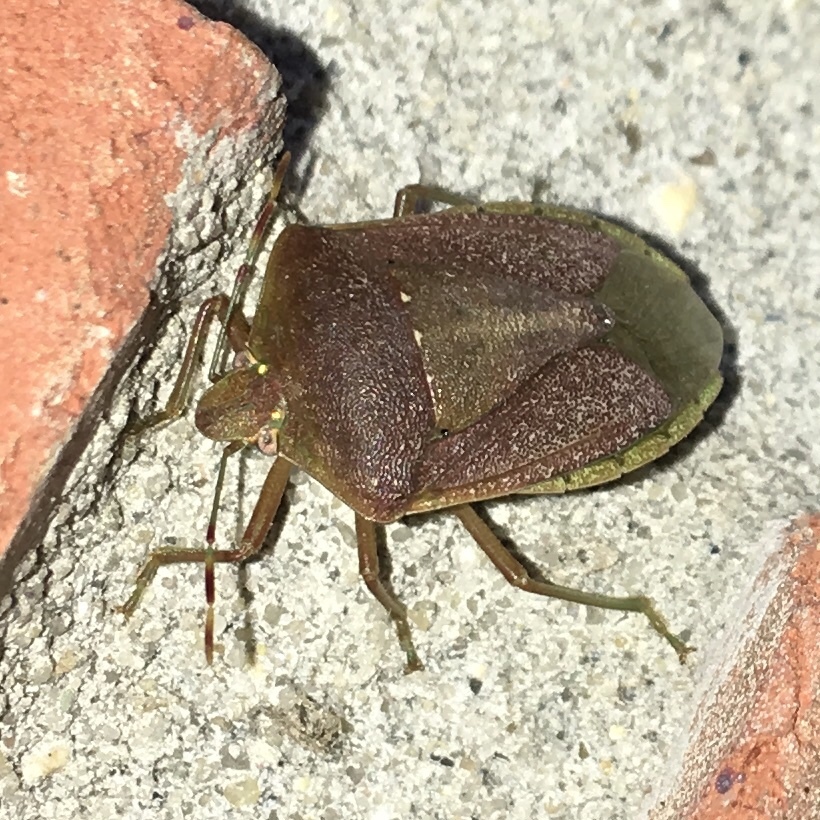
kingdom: Animalia
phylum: Arthropoda
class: Insecta
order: Hemiptera
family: Pentatomidae
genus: Nezara
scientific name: Nezara viridula
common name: Southern green stink bug
